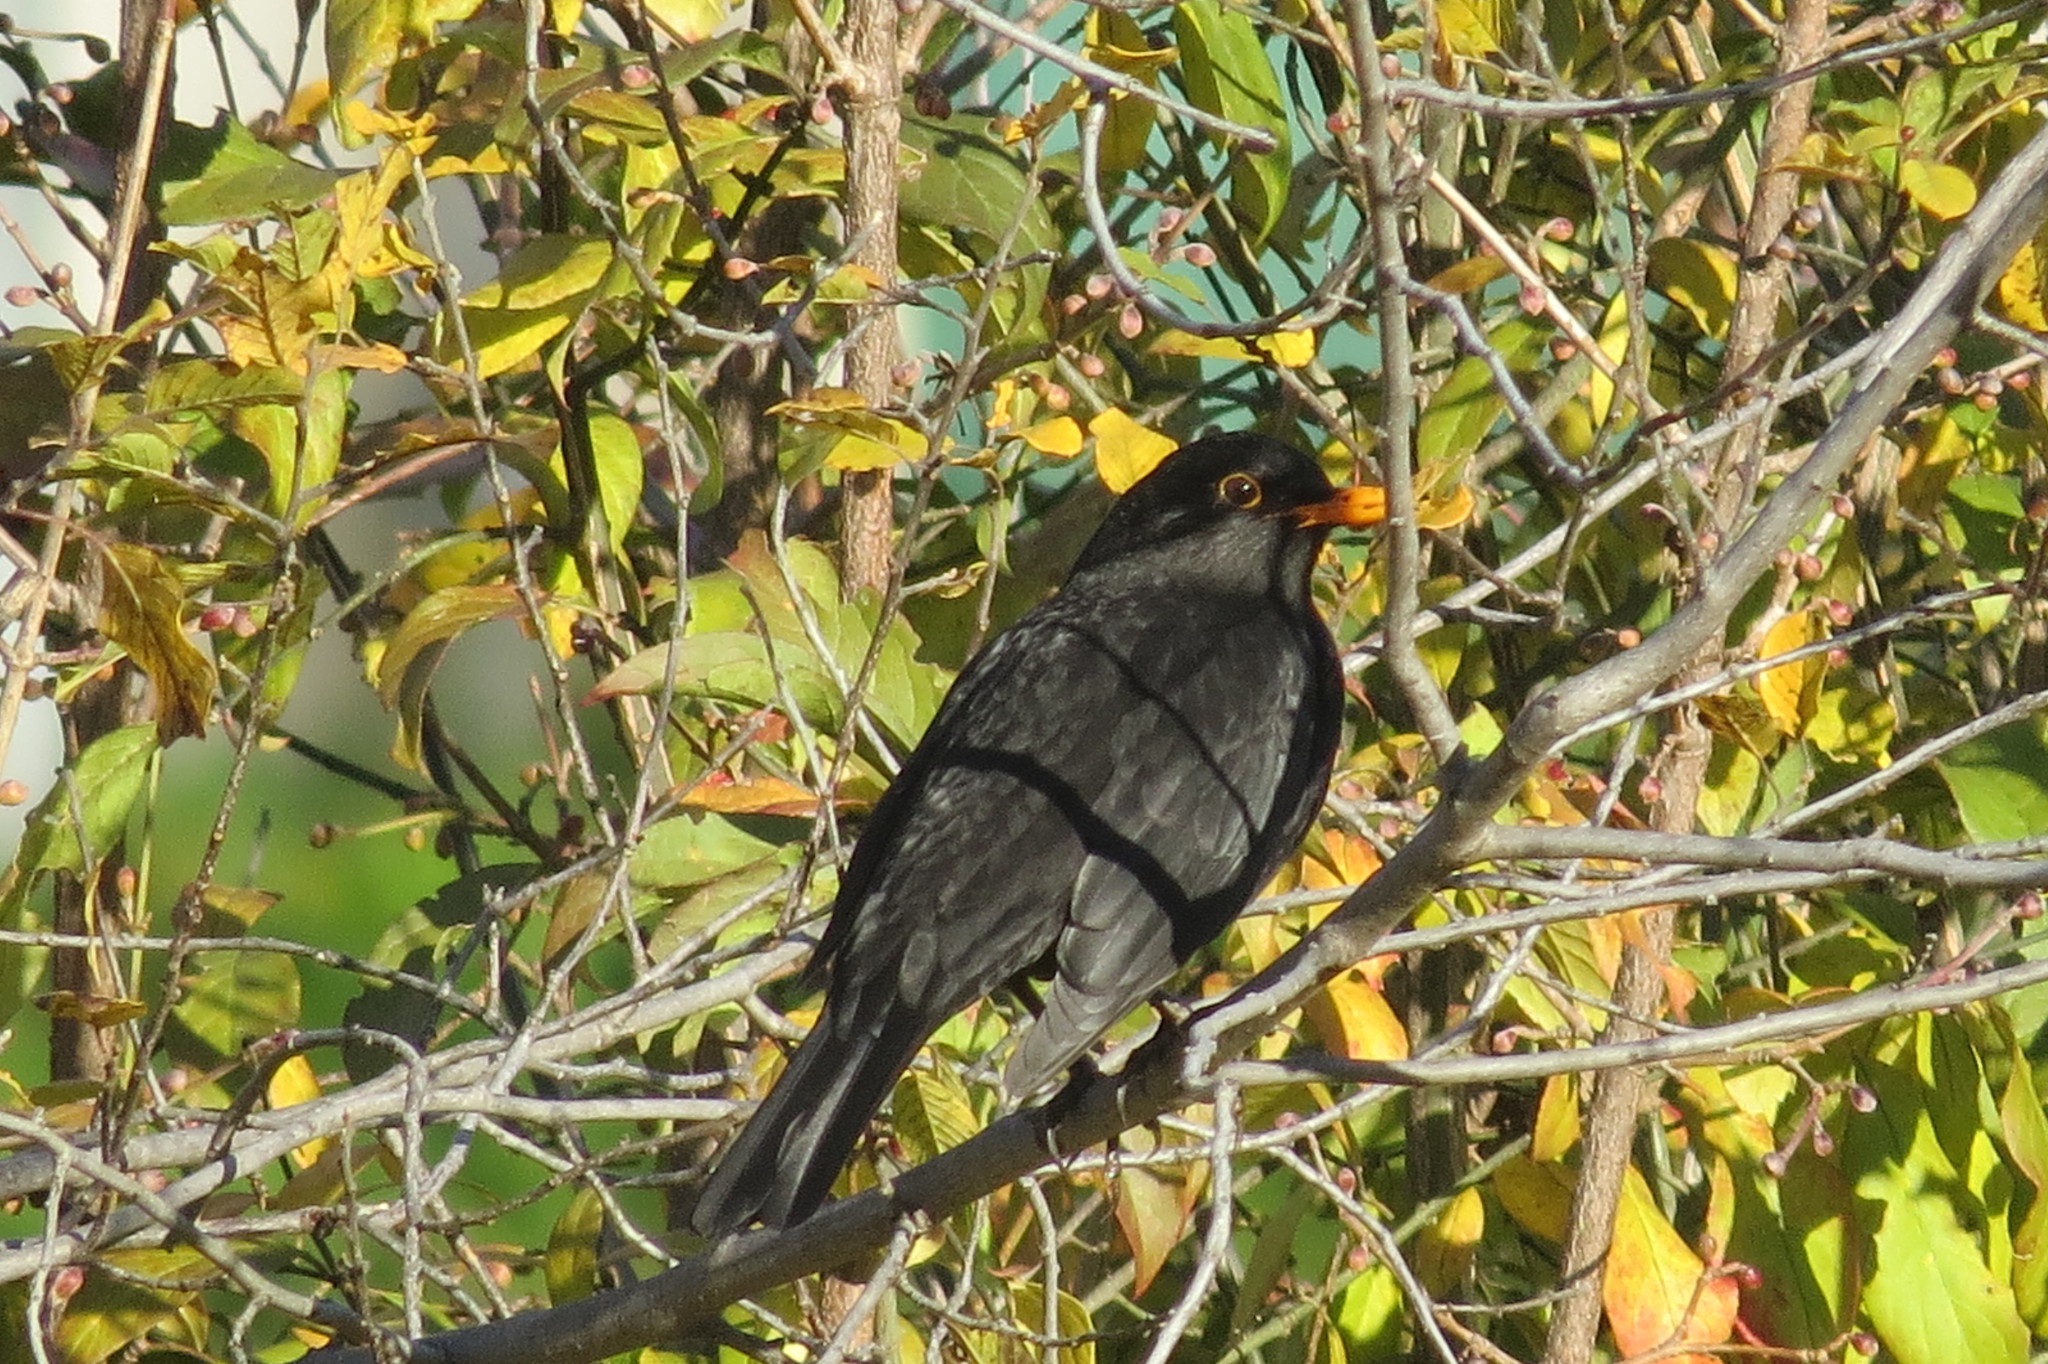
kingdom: Animalia
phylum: Chordata
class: Aves
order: Passeriformes
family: Turdidae
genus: Turdus
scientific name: Turdus merula
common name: Common blackbird
